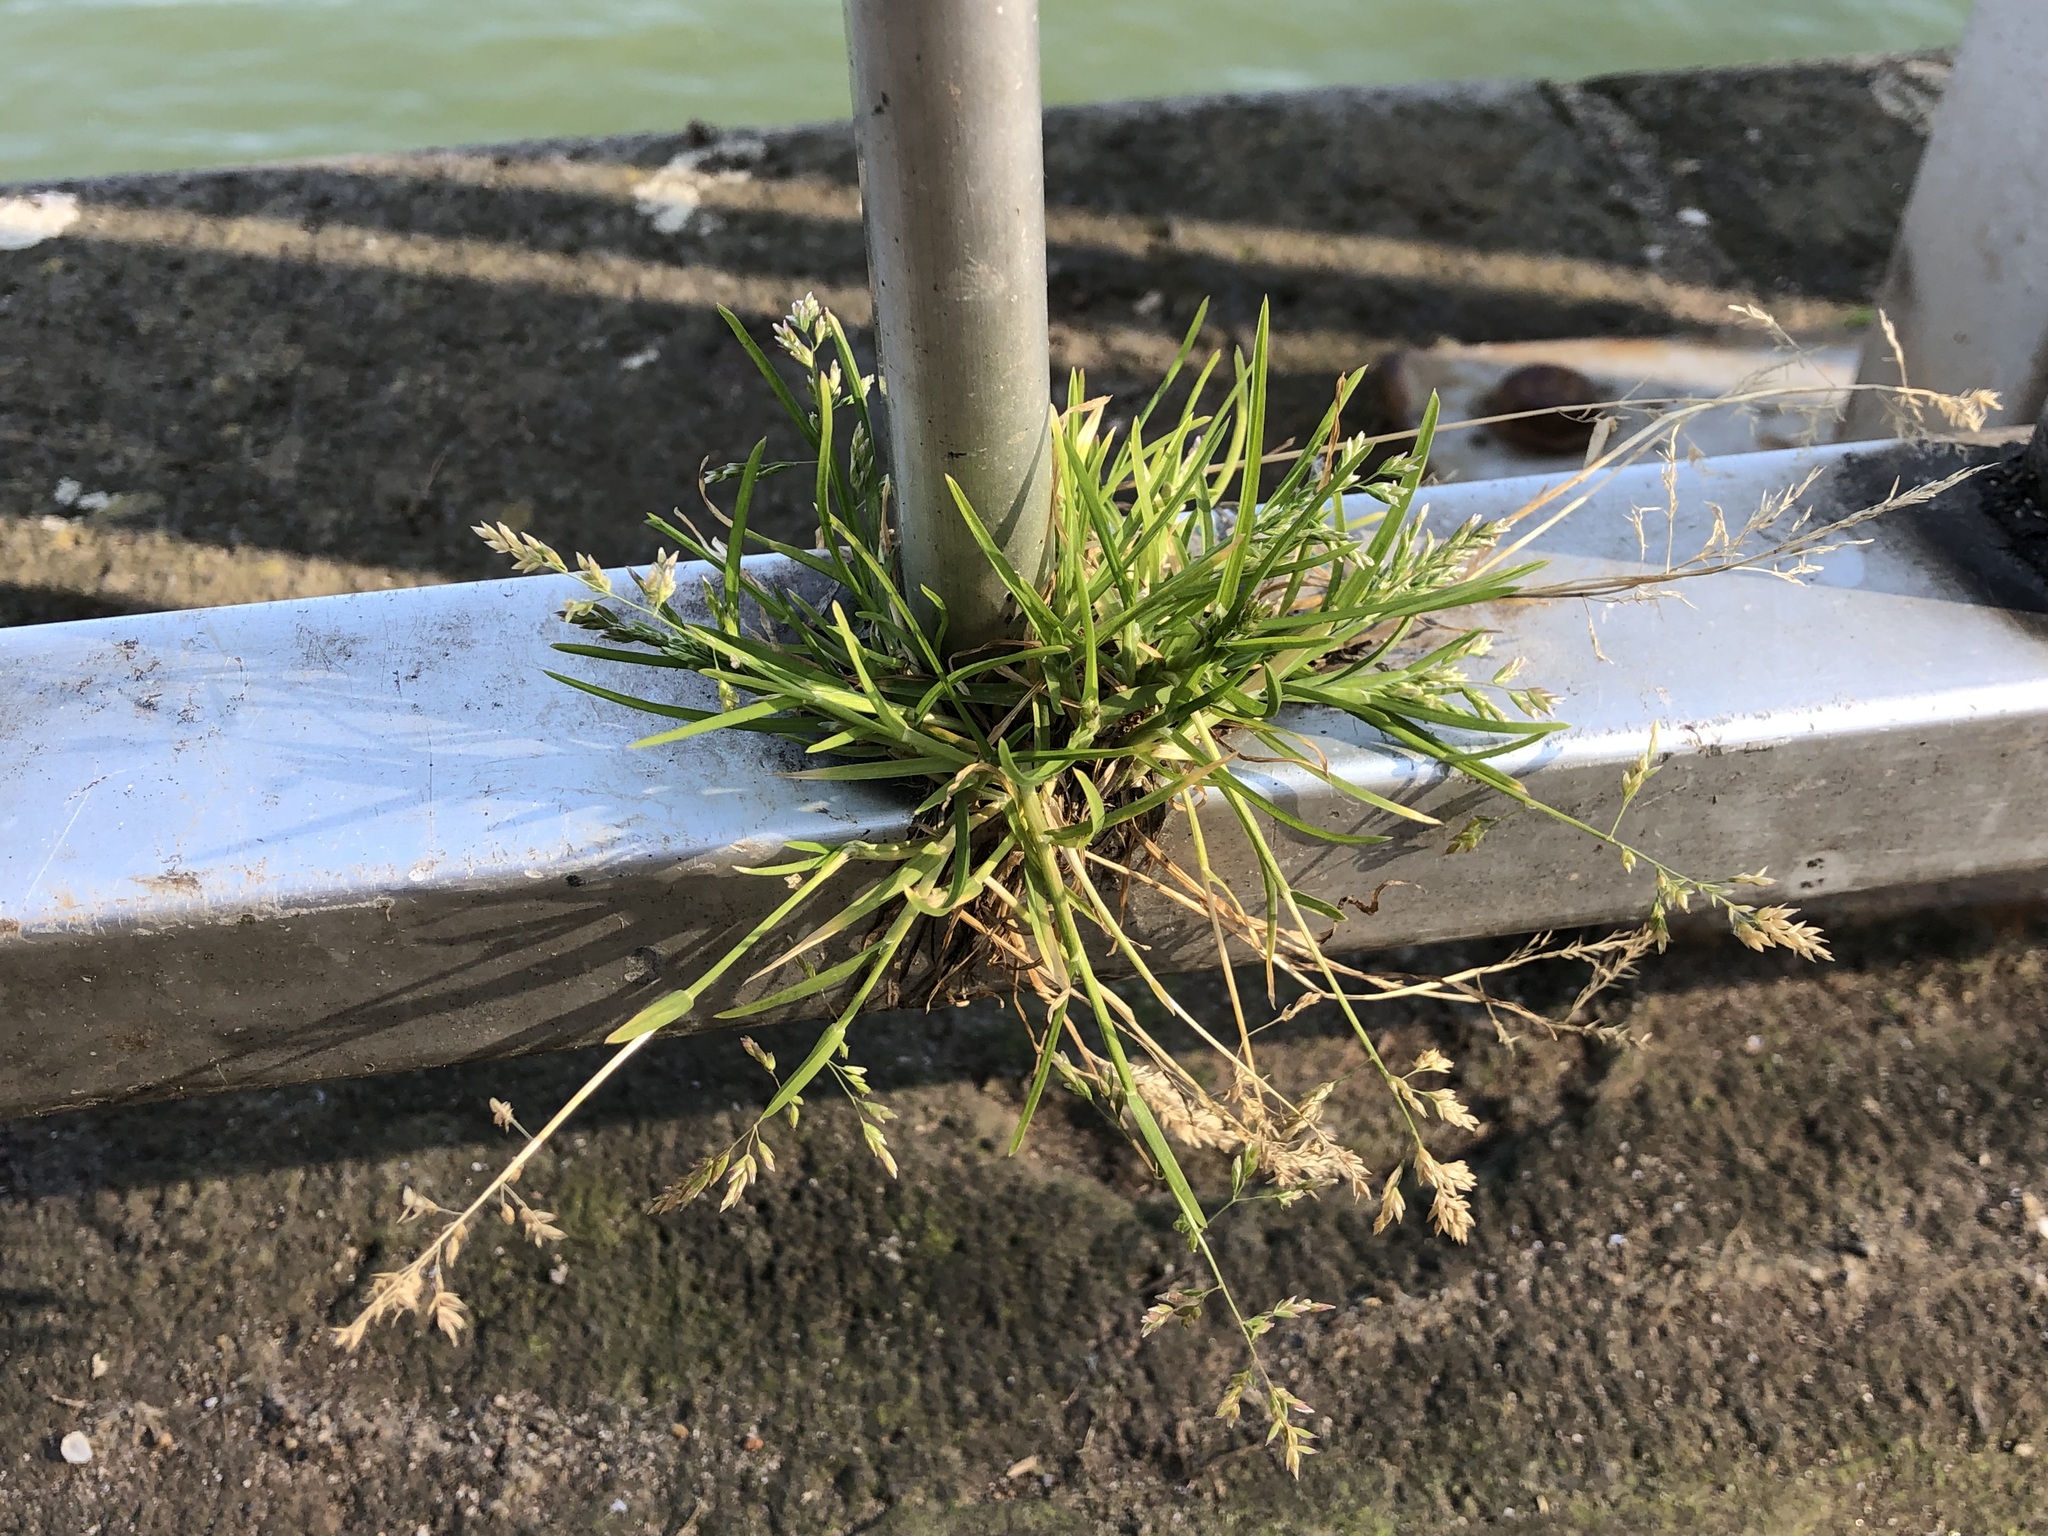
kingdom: Plantae
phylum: Tracheophyta
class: Liliopsida
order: Poales
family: Poaceae
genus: Poa
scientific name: Poa annua
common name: Annual bluegrass
